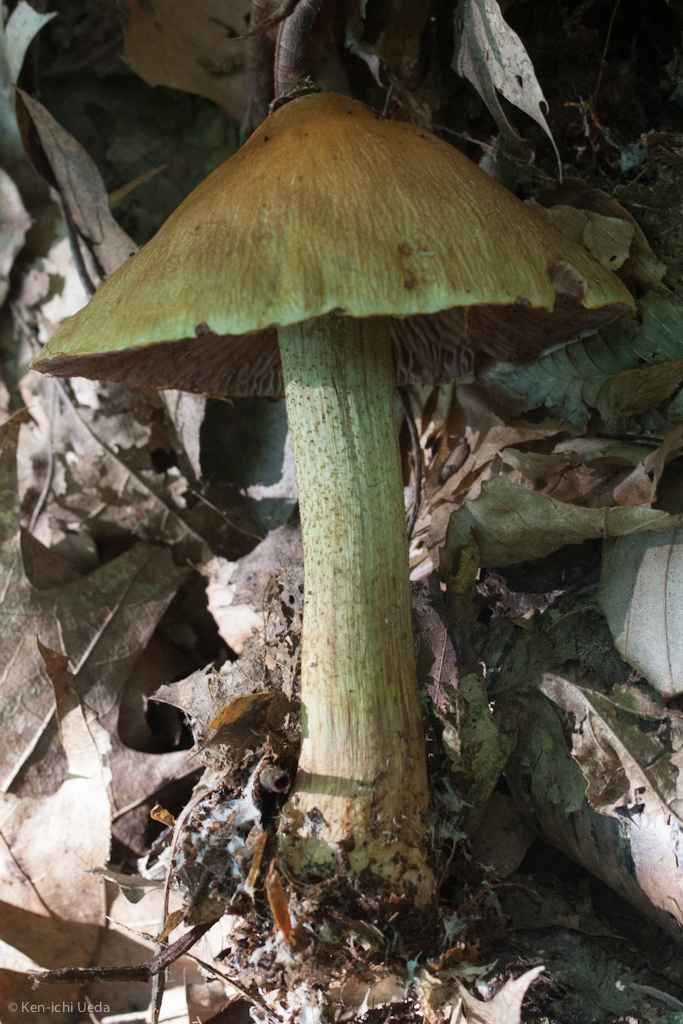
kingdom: Fungi
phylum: Basidiomycota
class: Agaricomycetes
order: Agaricales
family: Cortinariaceae
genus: Cortinarius
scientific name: Cortinarius corrugatus
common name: Wrinkled cortinarius
